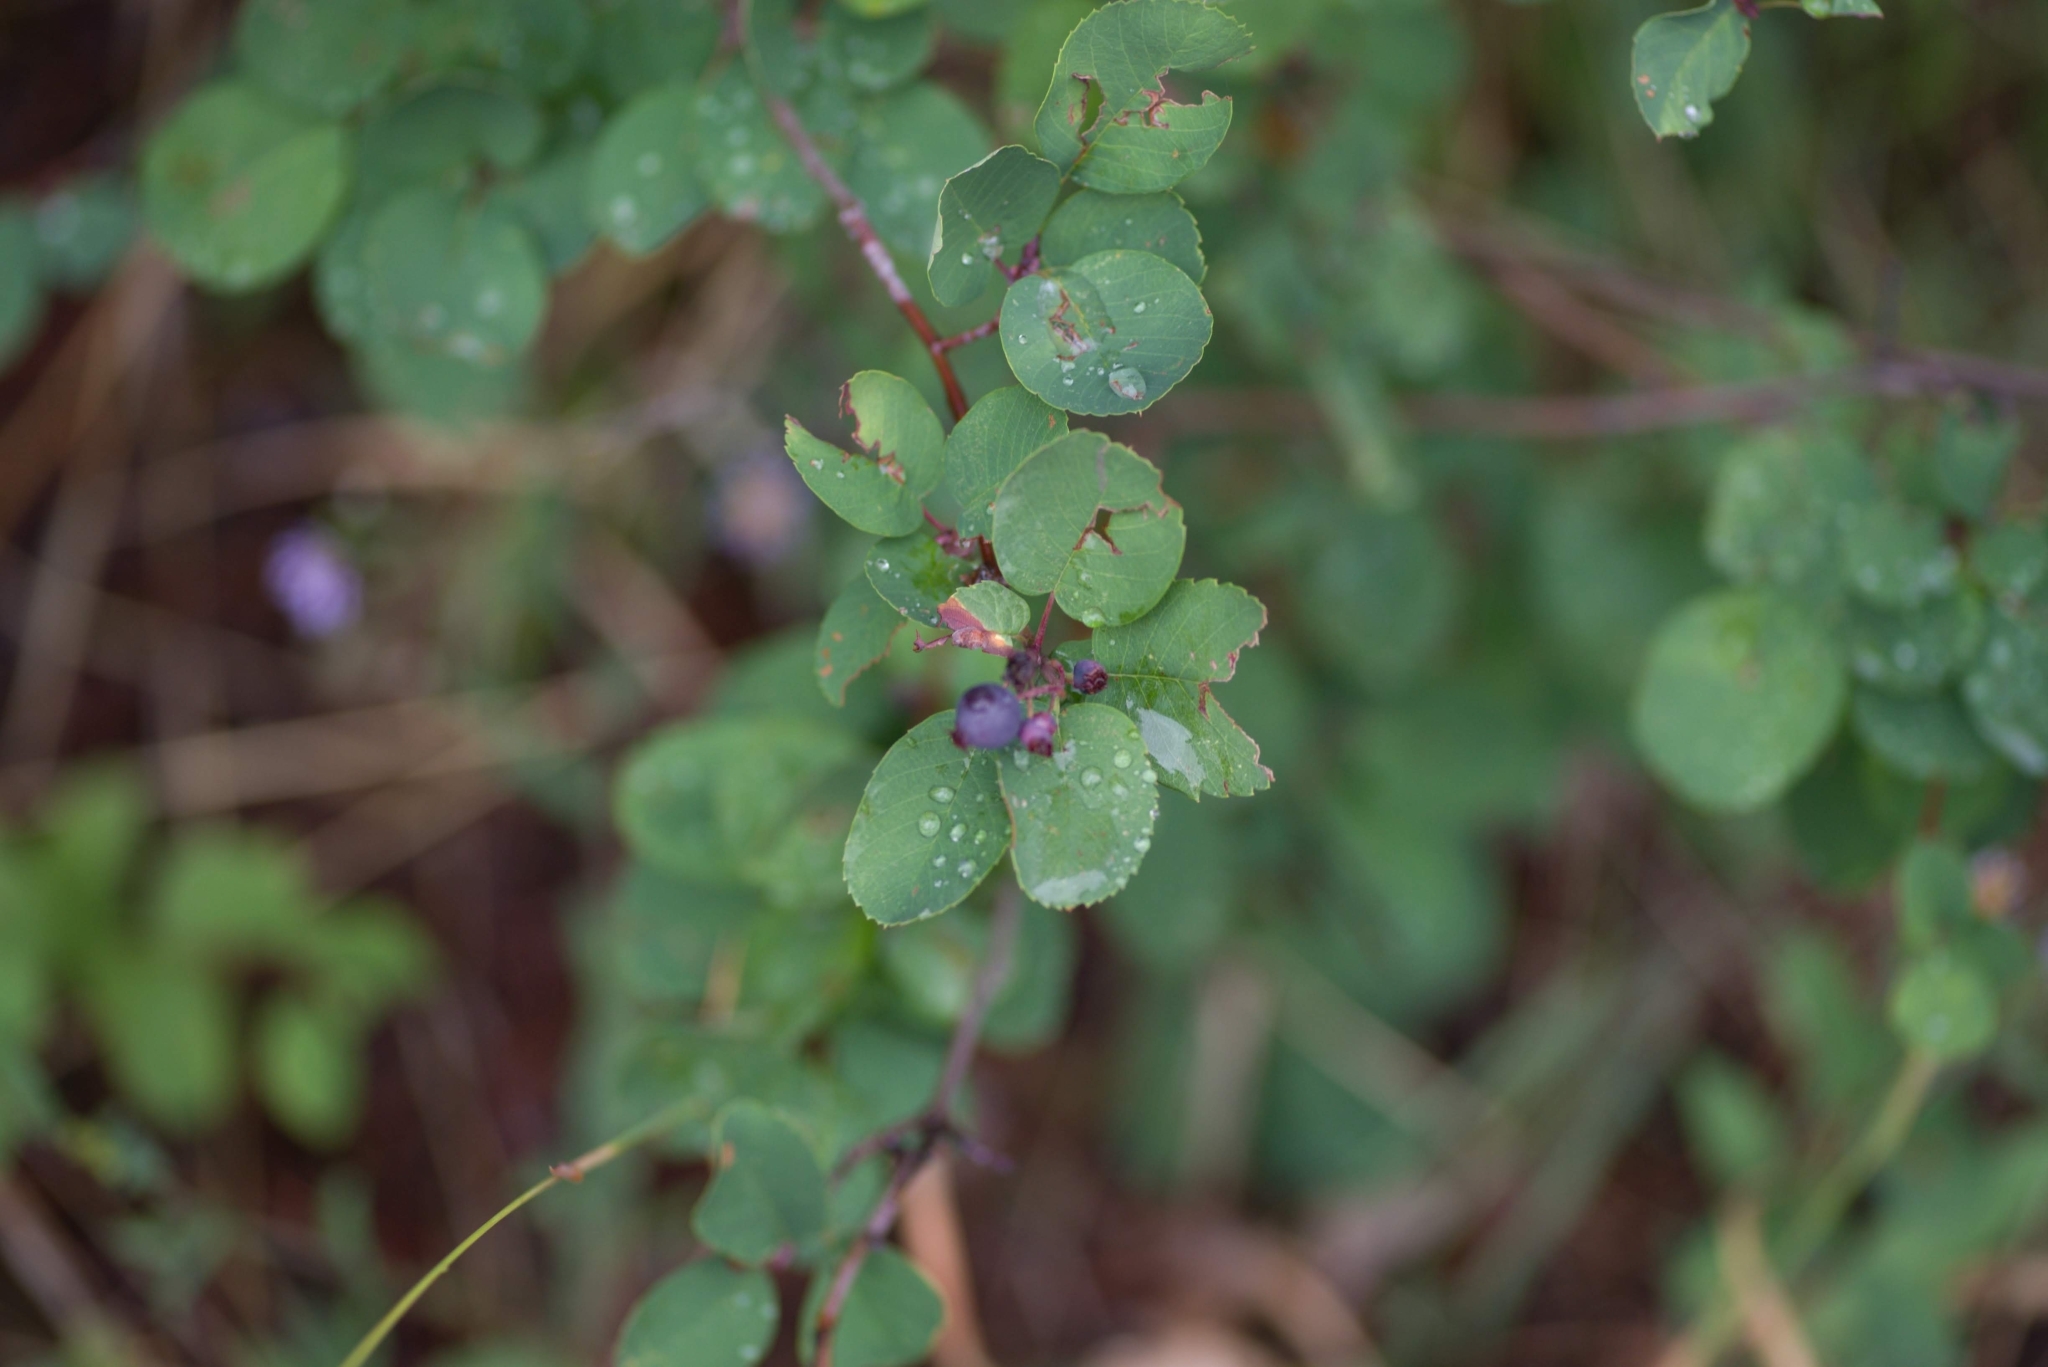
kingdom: Plantae
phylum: Tracheophyta
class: Magnoliopsida
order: Rosales
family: Rosaceae
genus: Amelanchier
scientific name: Amelanchier alnifolia
